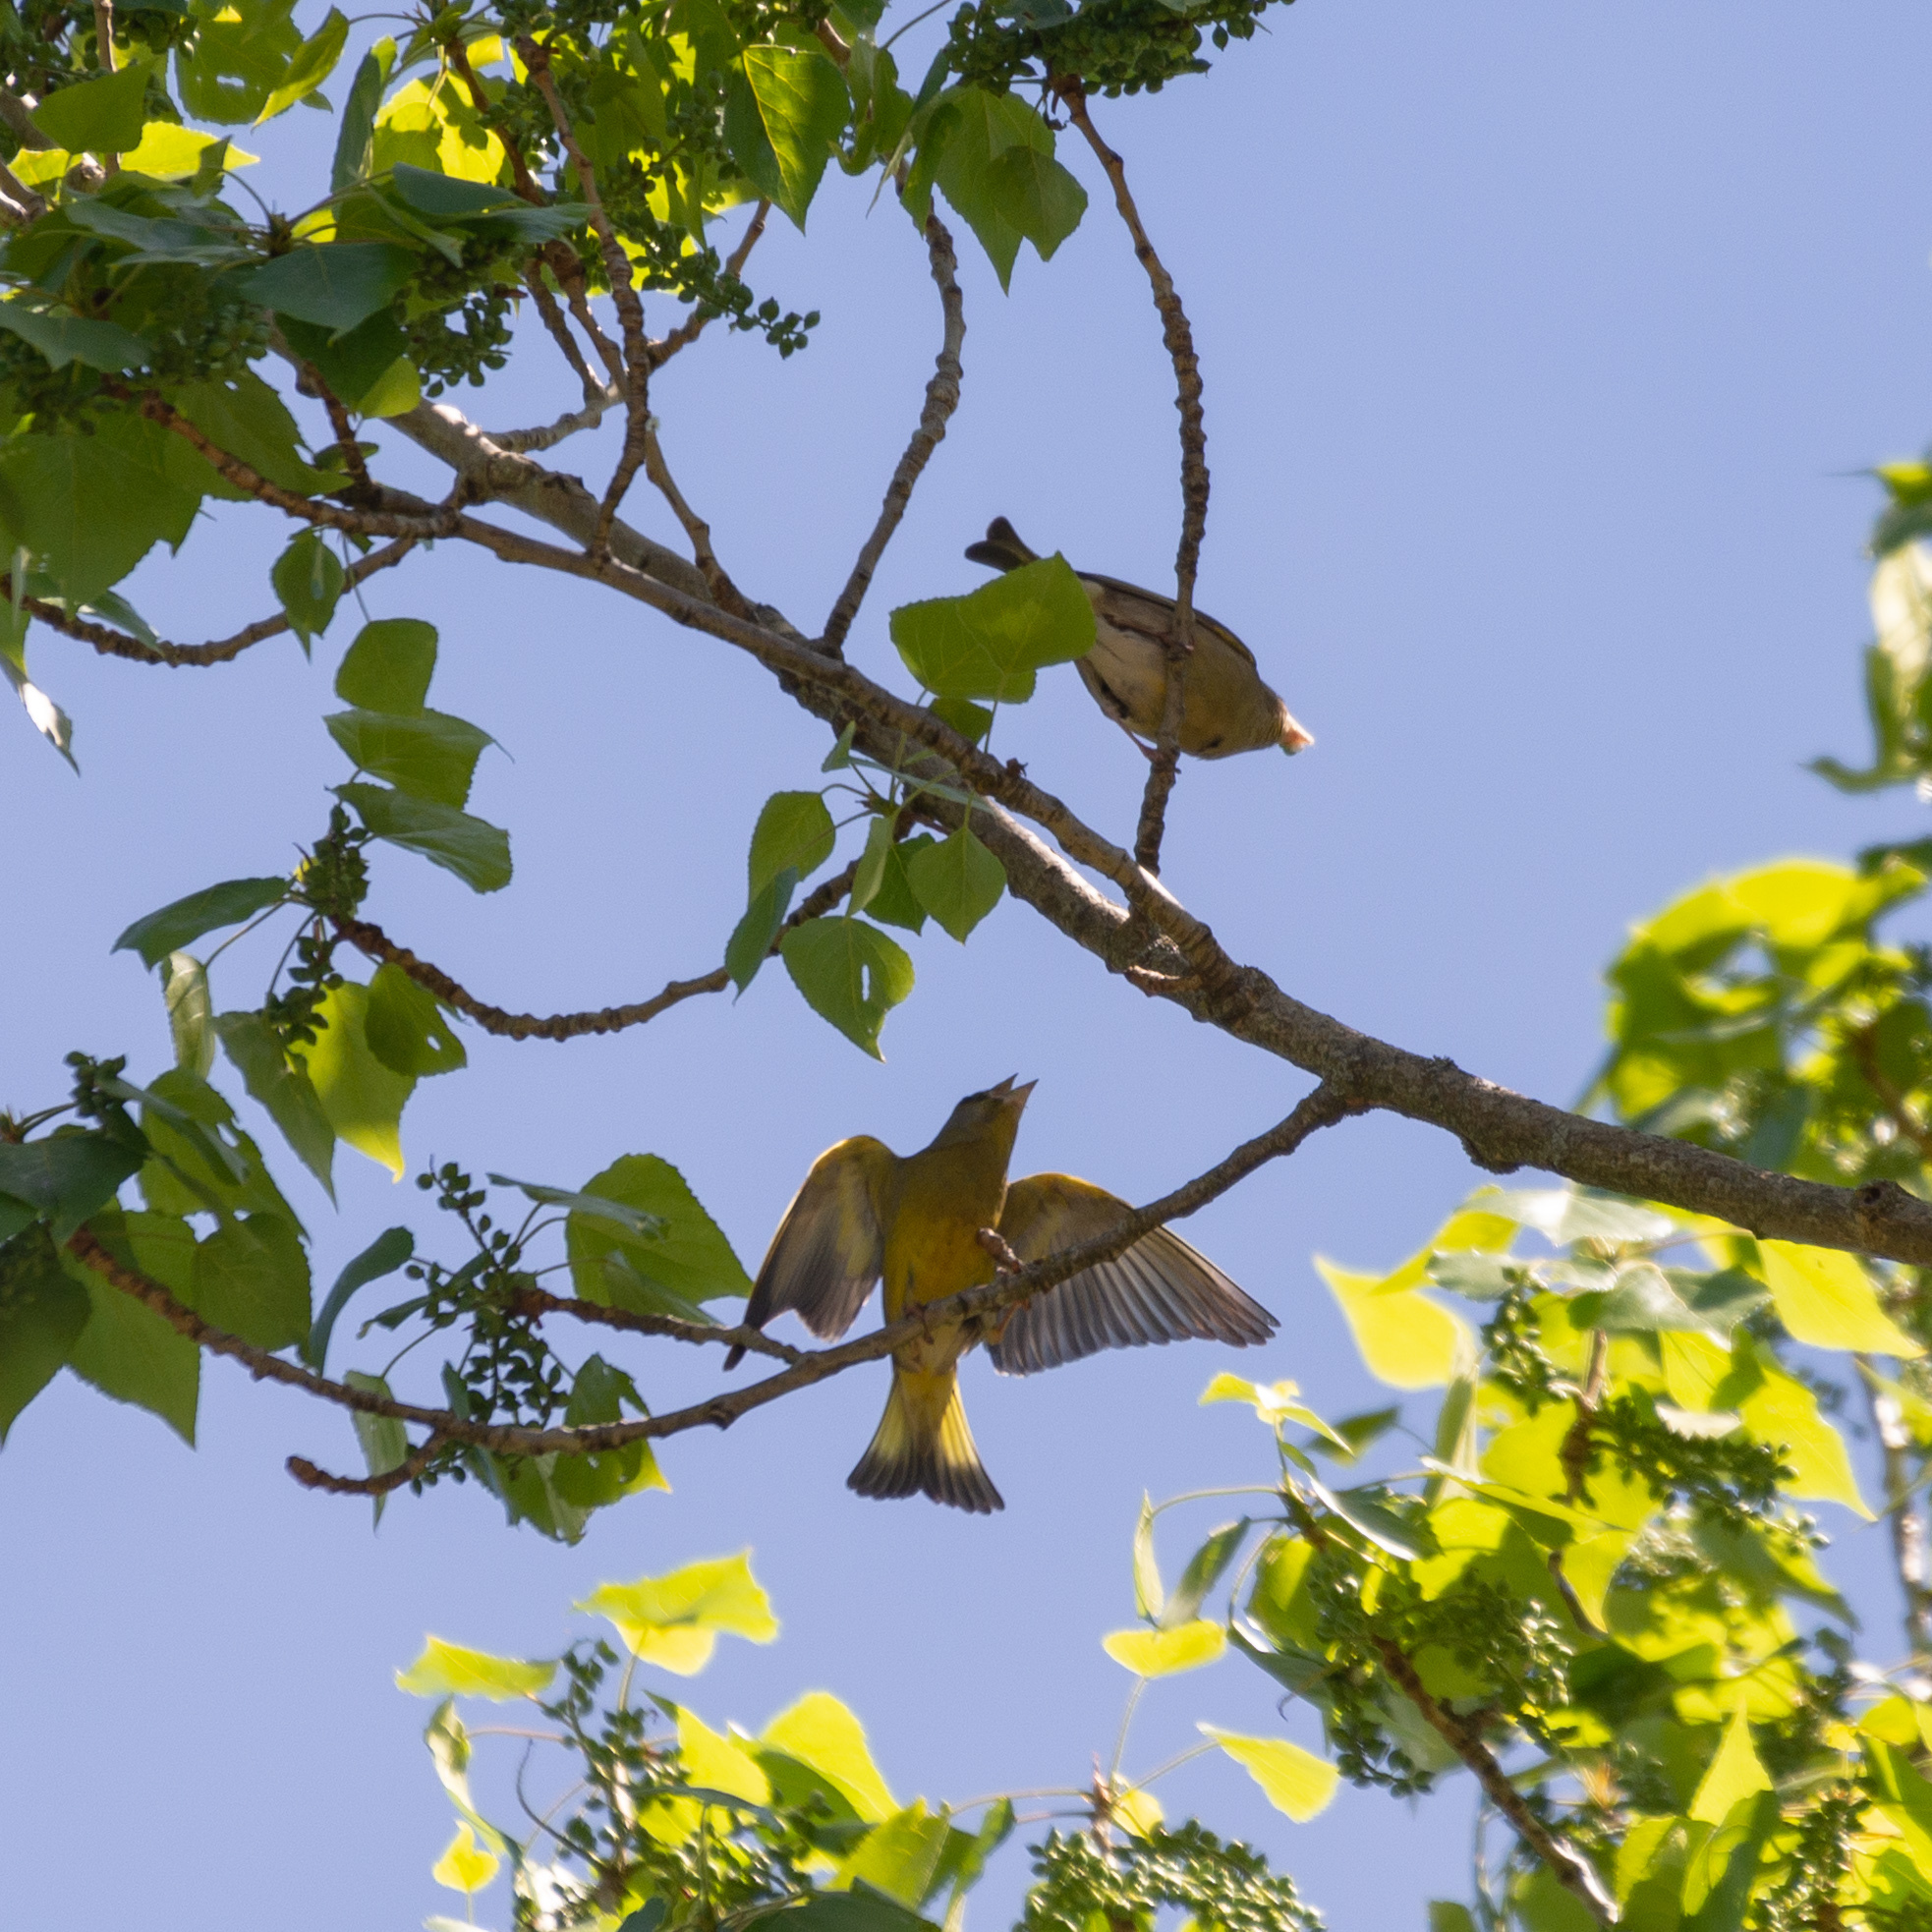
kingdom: Plantae
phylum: Tracheophyta
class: Liliopsida
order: Poales
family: Poaceae
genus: Chloris
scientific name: Chloris chloris
